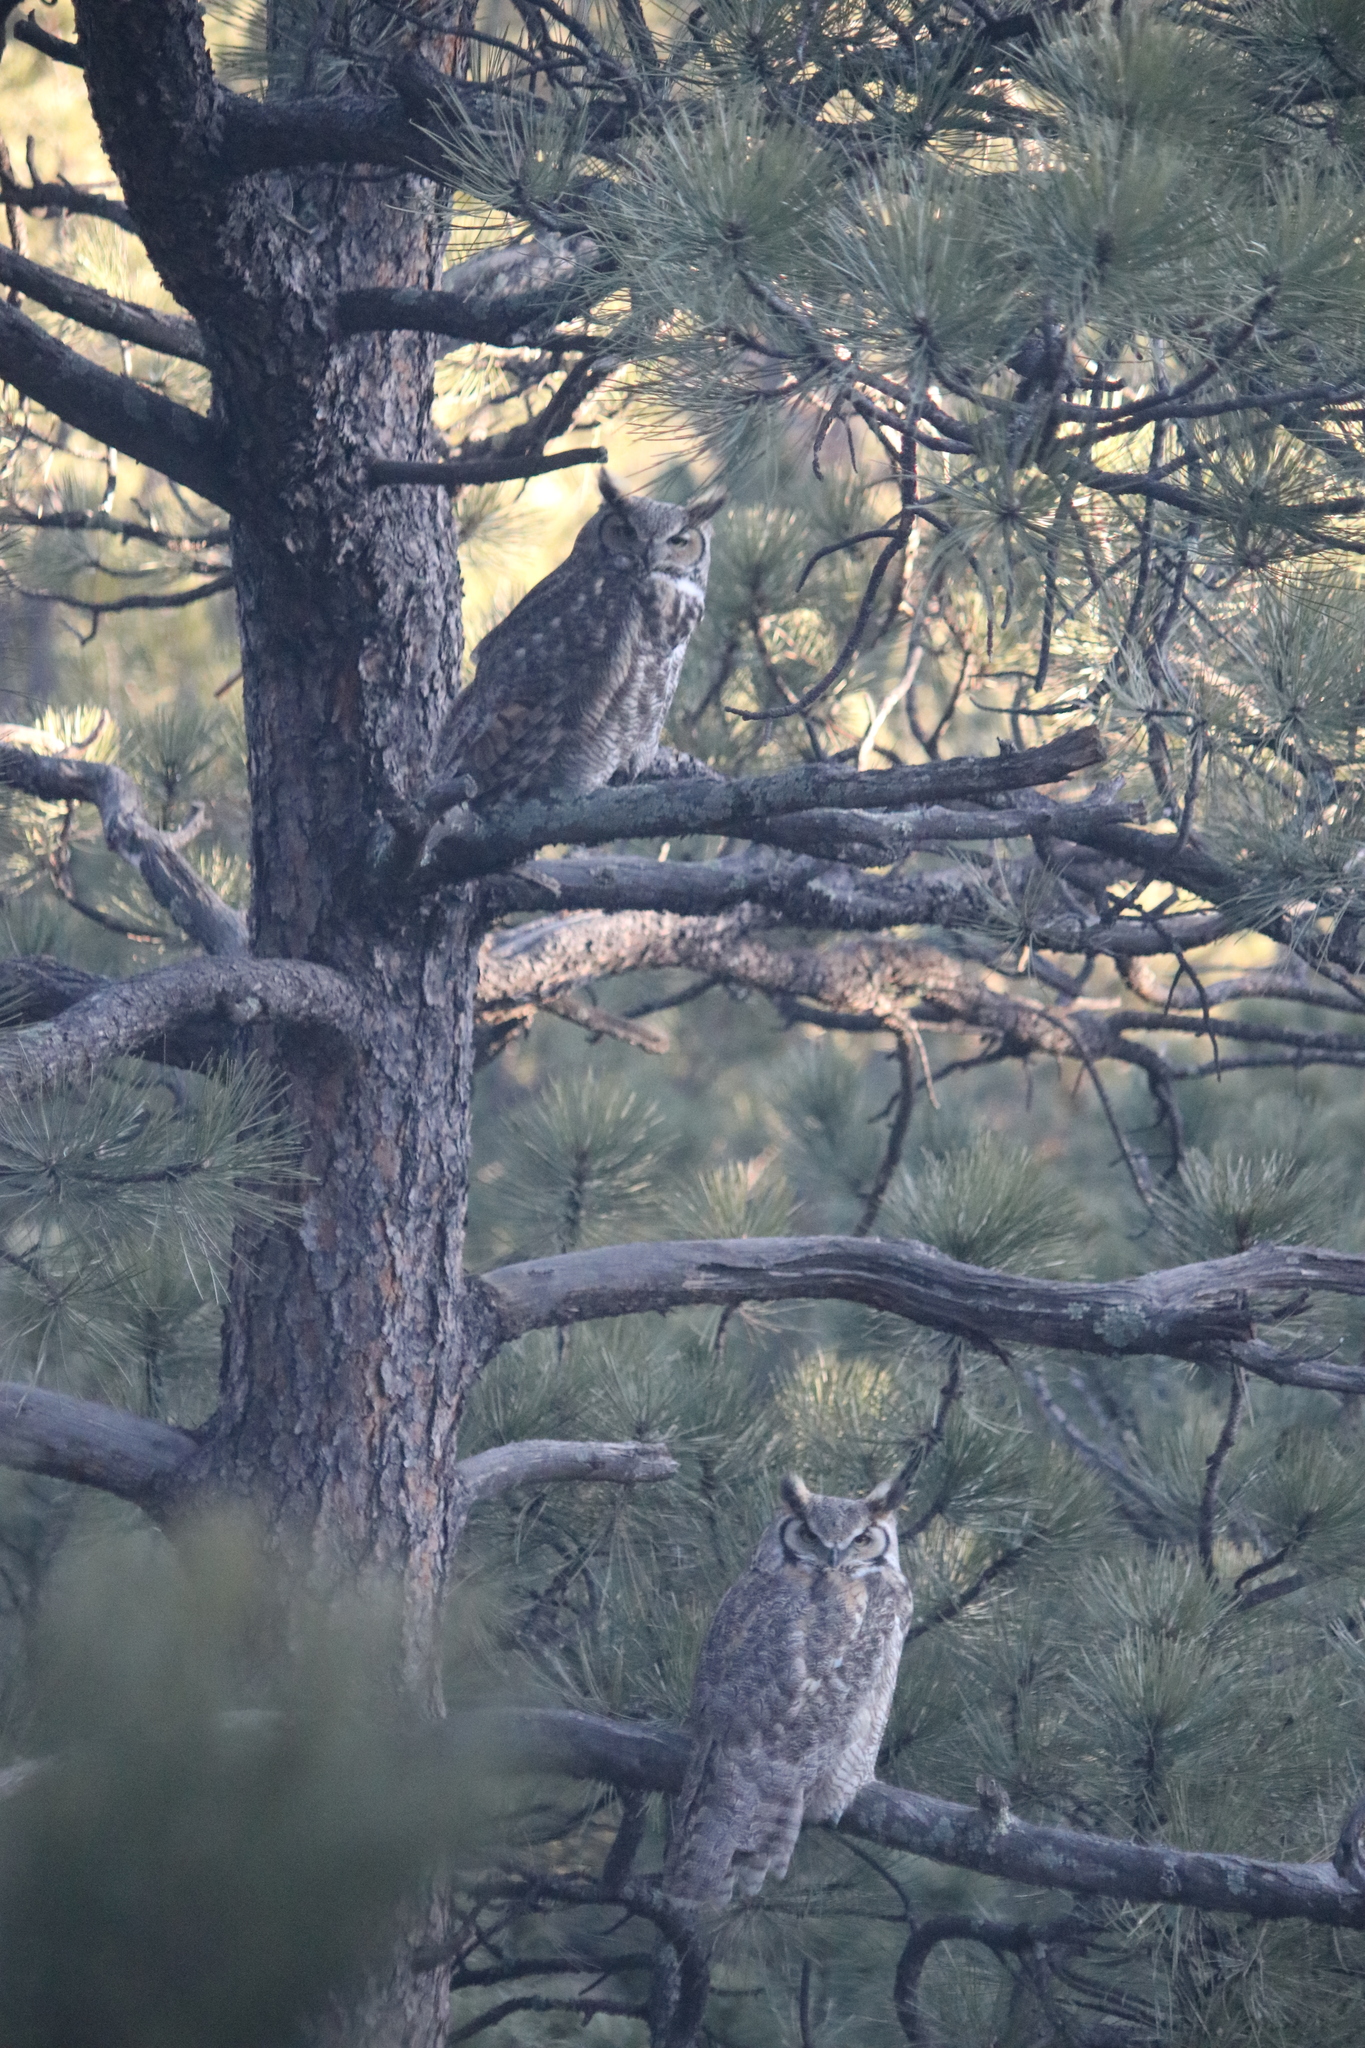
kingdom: Animalia
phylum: Chordata
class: Aves
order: Strigiformes
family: Strigidae
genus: Bubo
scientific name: Bubo virginianus
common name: Great horned owl
